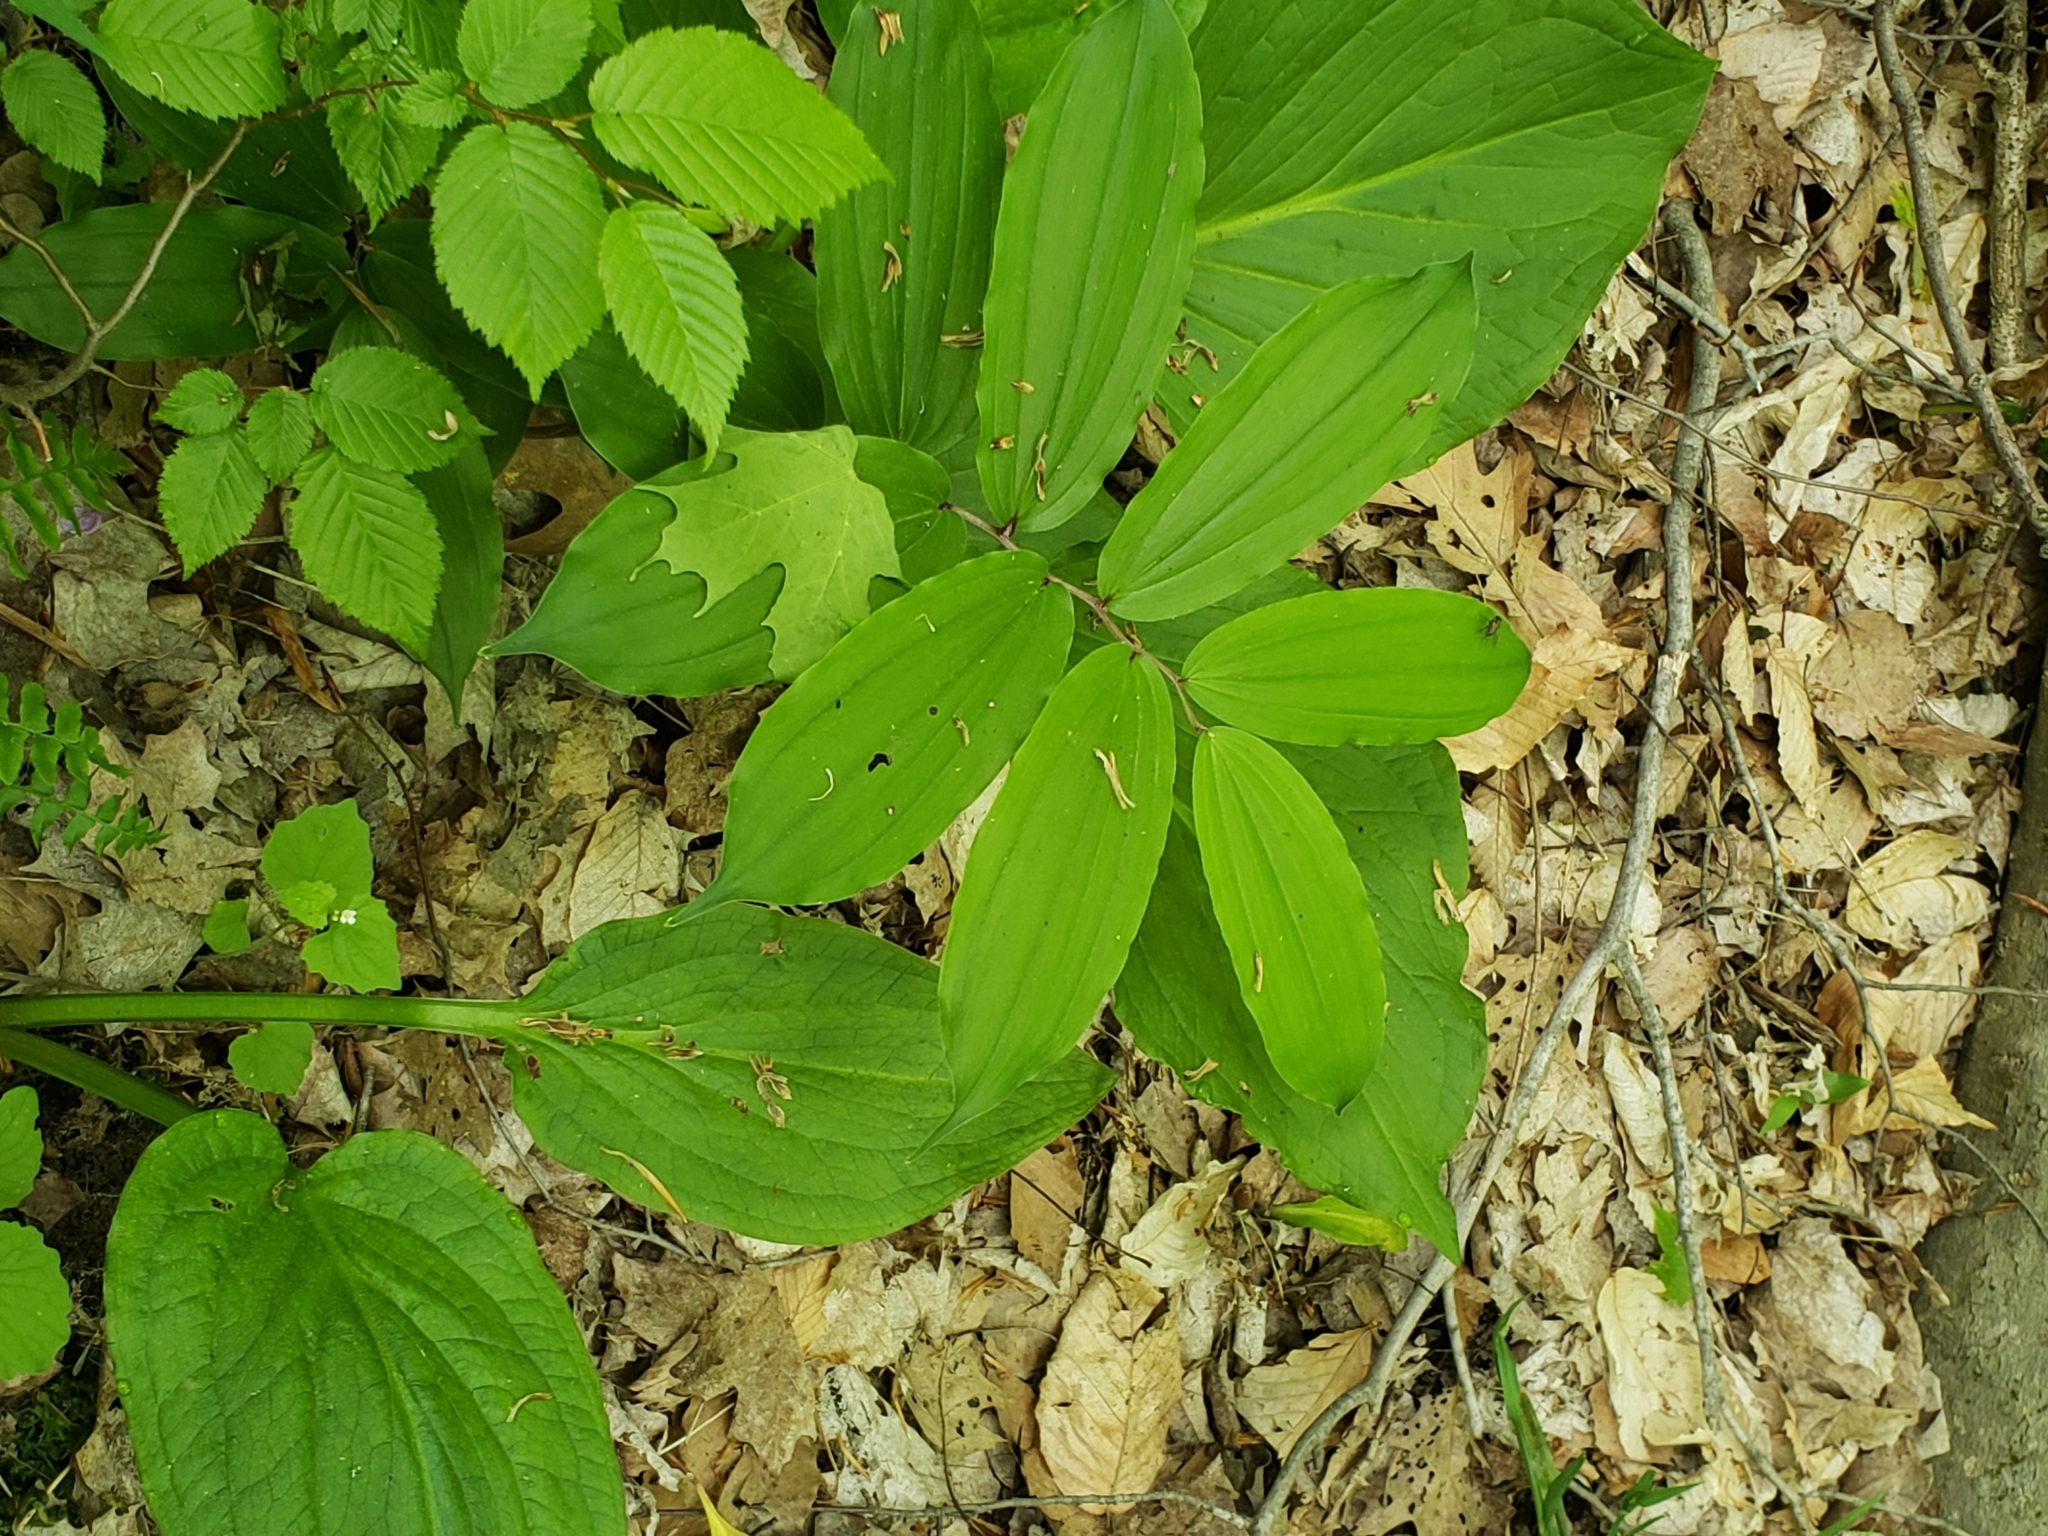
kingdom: Plantae
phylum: Tracheophyta
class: Liliopsida
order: Asparagales
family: Asparagaceae
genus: Maianthemum
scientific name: Maianthemum racemosum
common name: False spikenard
